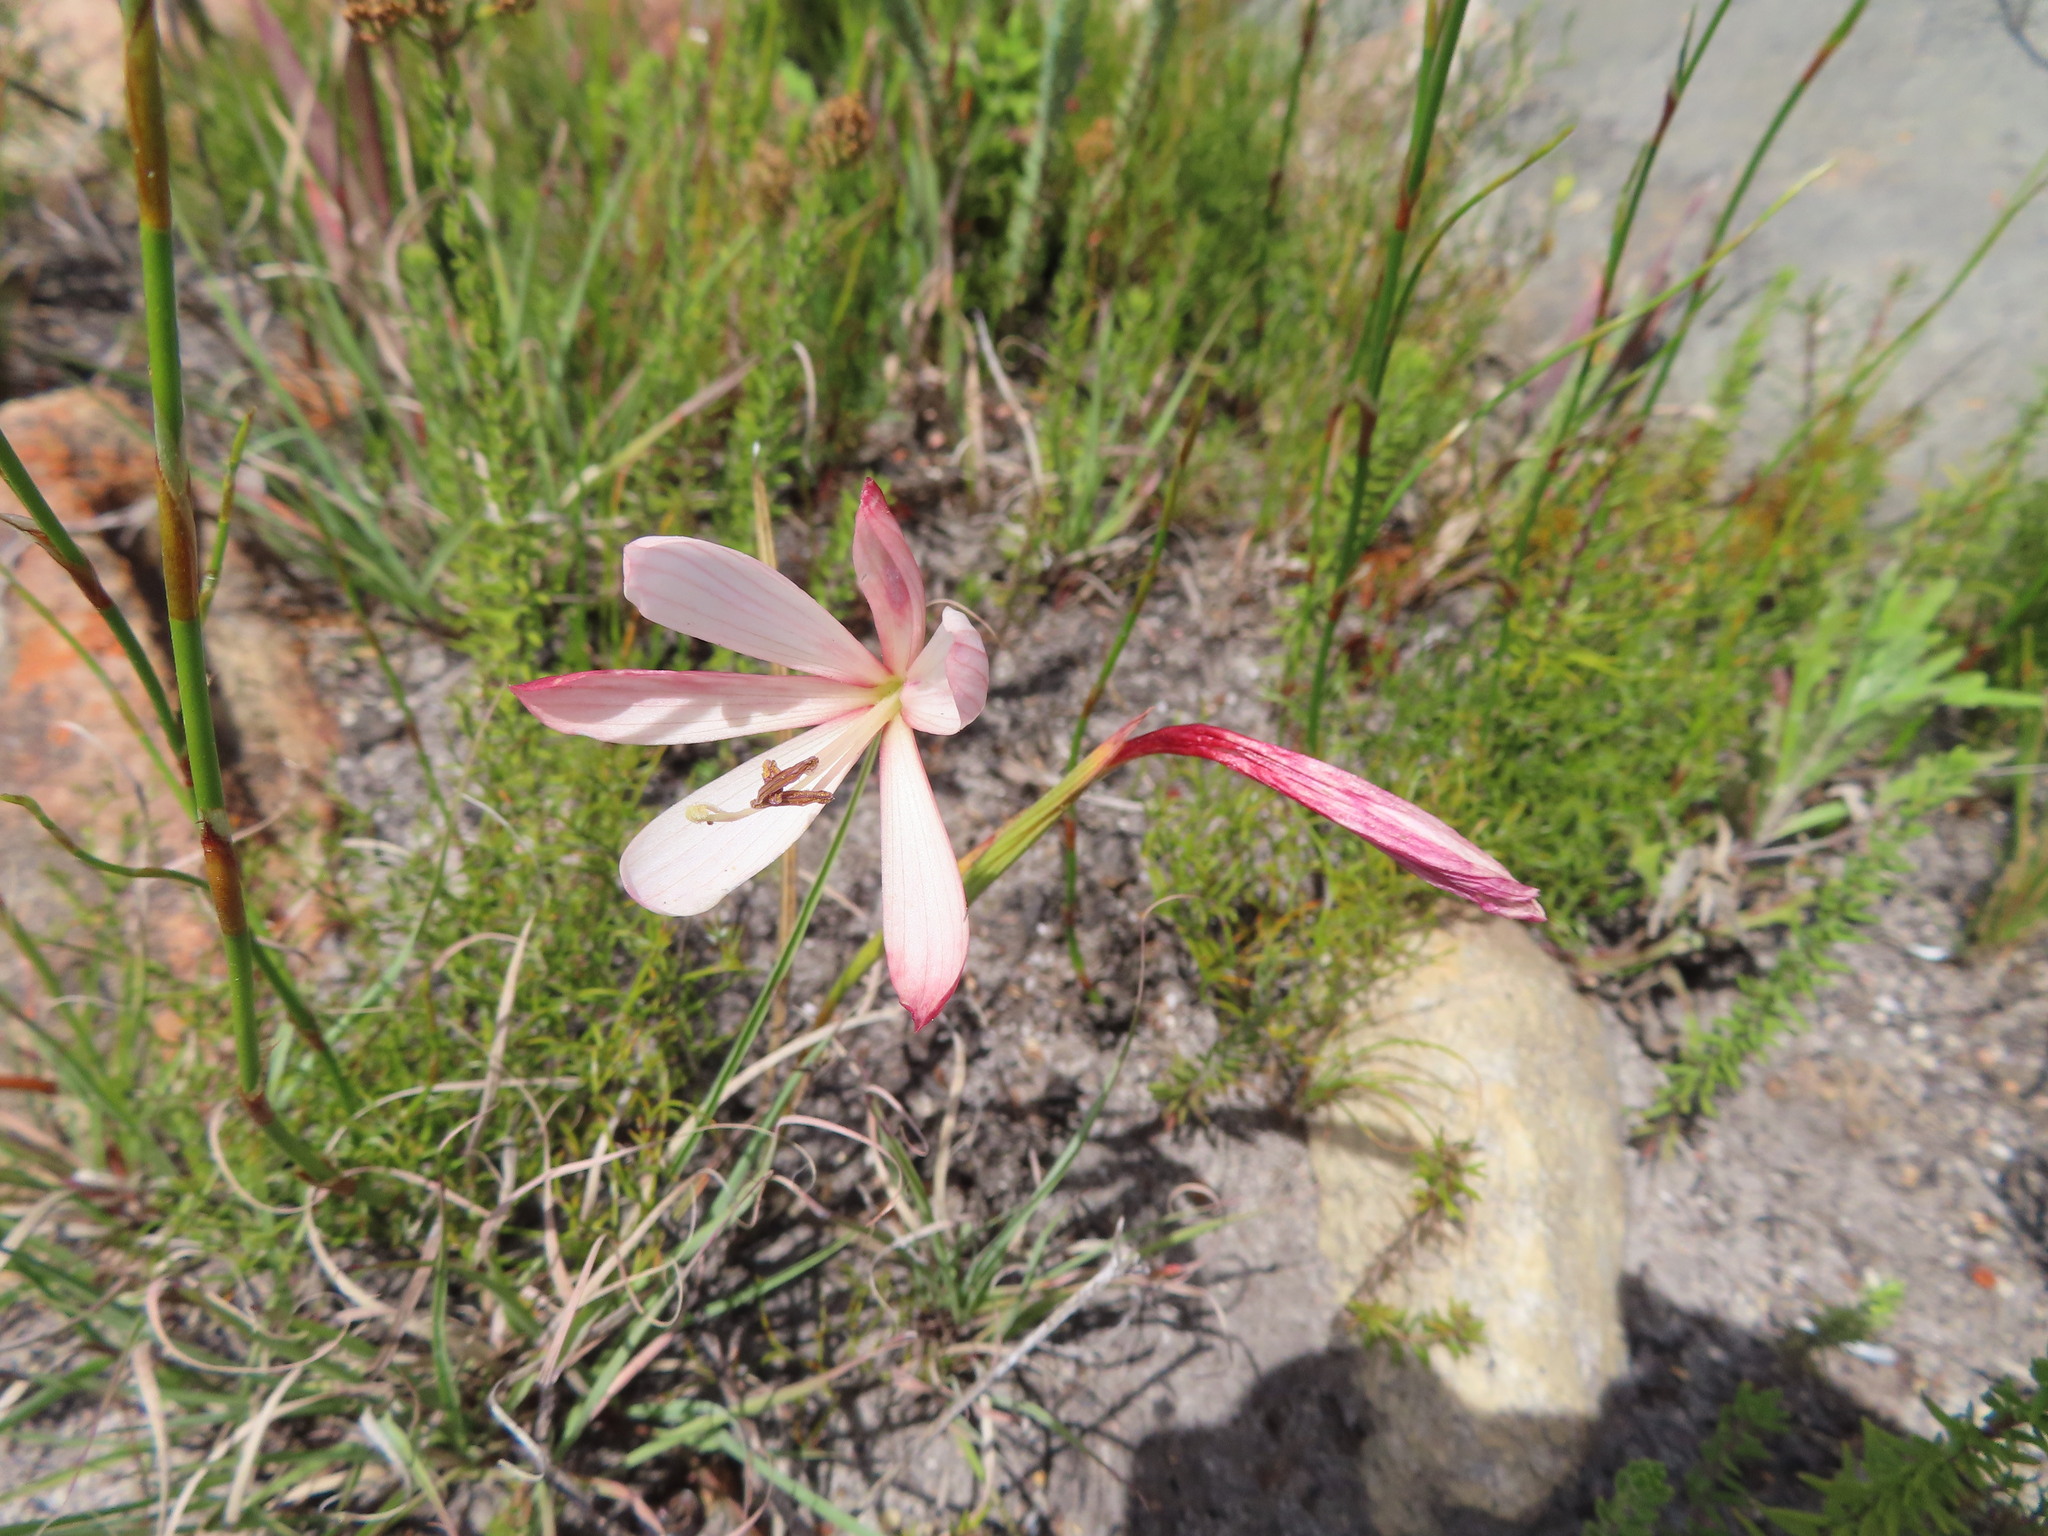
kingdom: Plantae
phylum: Tracheophyta
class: Liliopsida
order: Asparagales
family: Iridaceae
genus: Geissorhiza
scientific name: Geissorhiza schinzii
